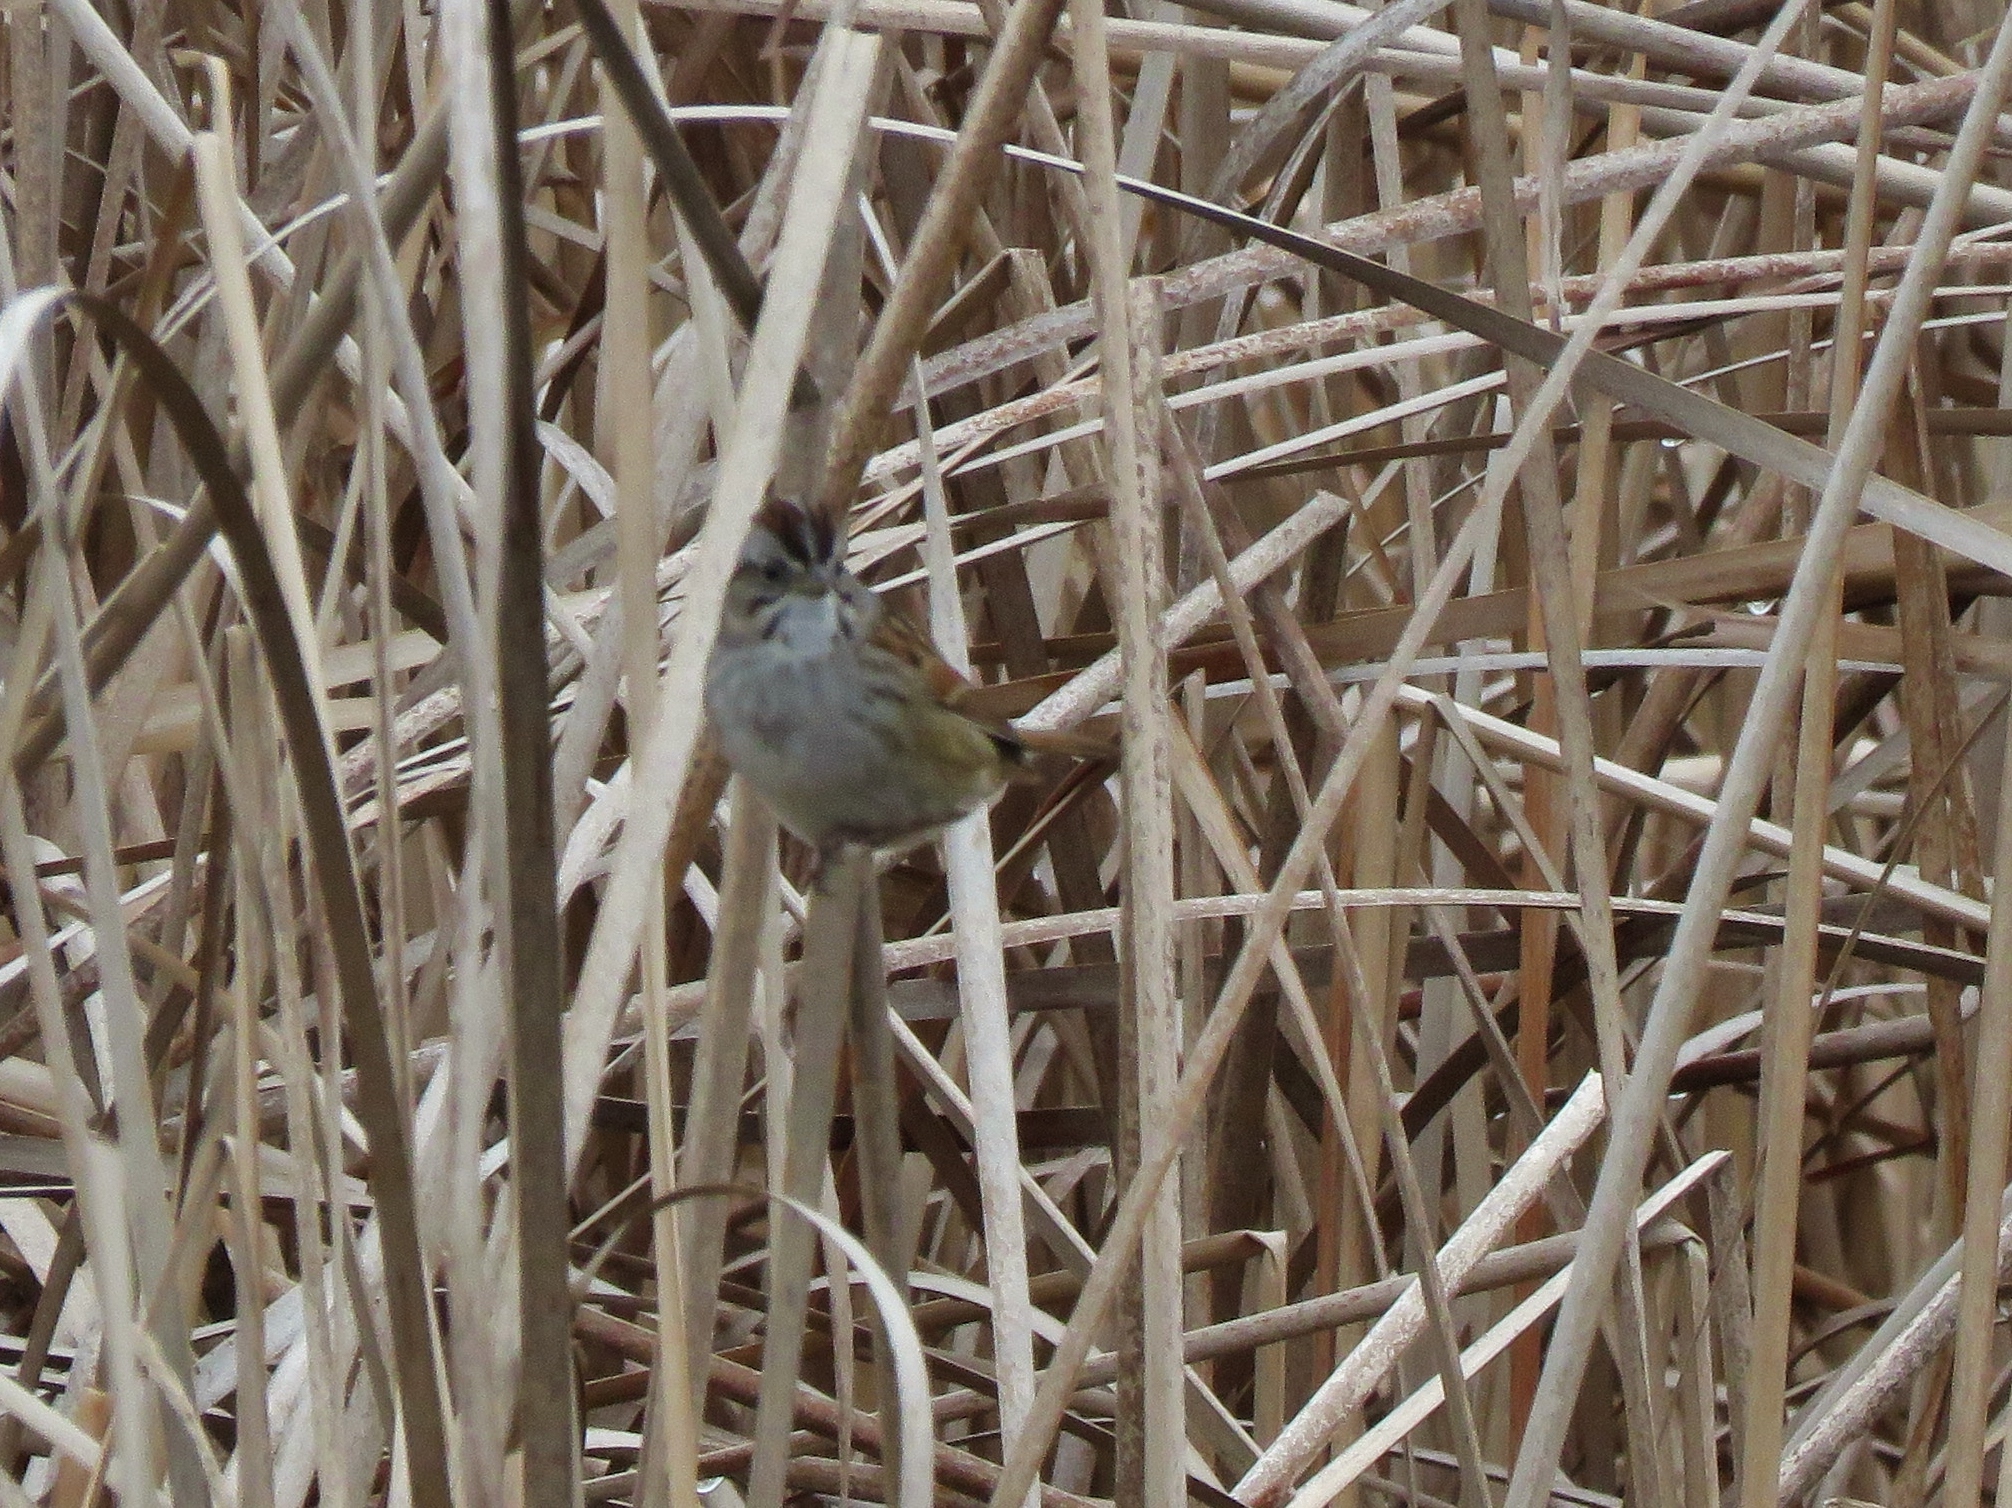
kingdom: Animalia
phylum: Chordata
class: Aves
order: Passeriformes
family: Passerellidae
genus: Melospiza
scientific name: Melospiza georgiana
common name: Swamp sparrow
